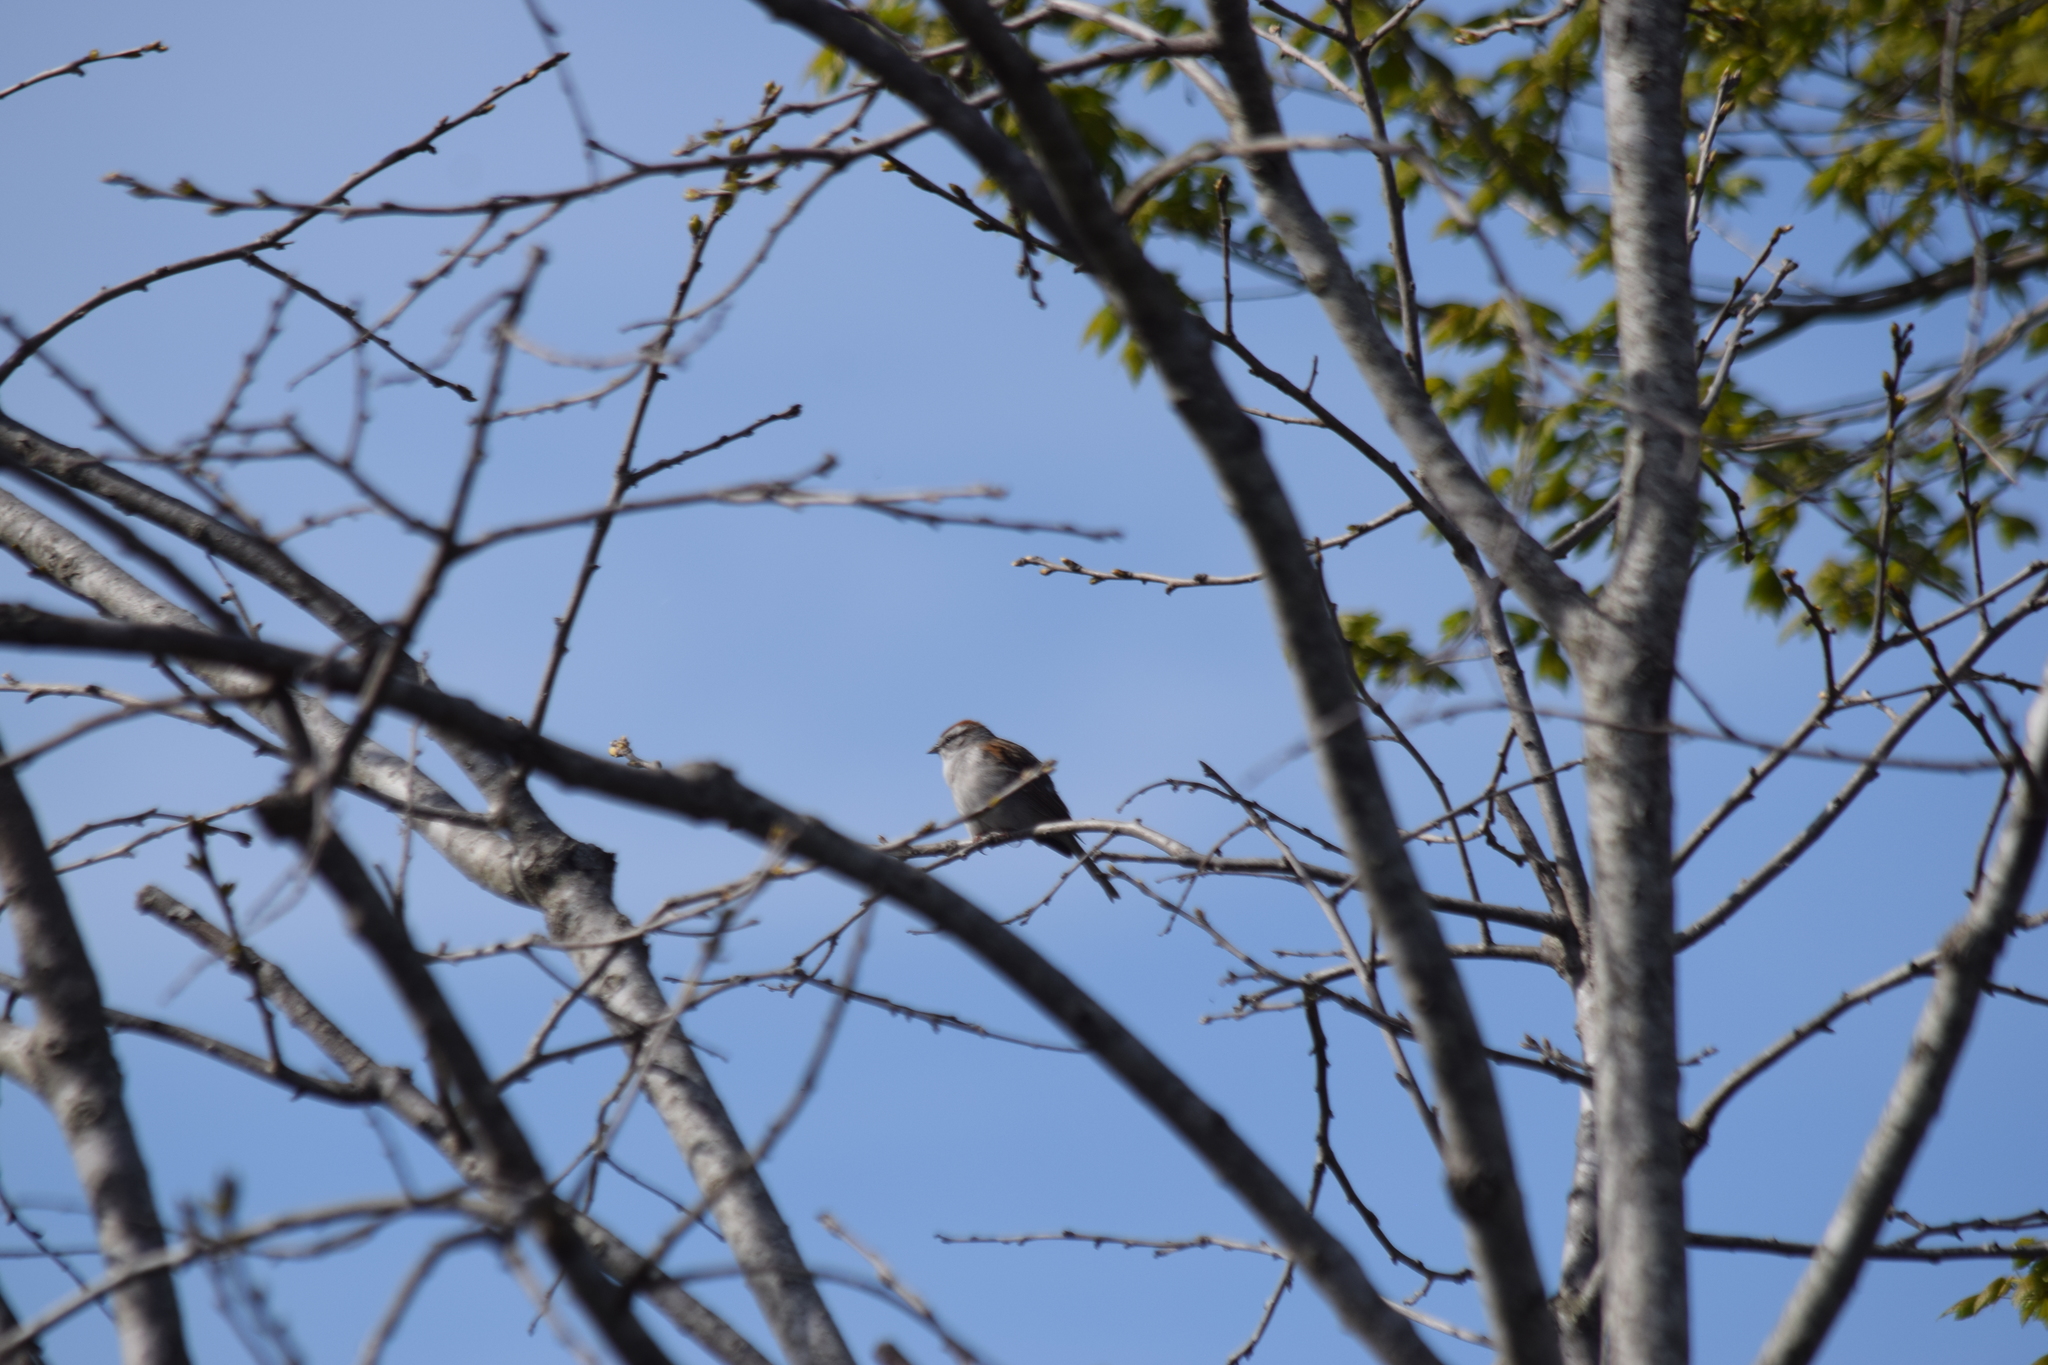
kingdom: Animalia
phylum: Chordata
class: Aves
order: Passeriformes
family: Passerellidae
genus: Spizella
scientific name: Spizella passerina
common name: Chipping sparrow
